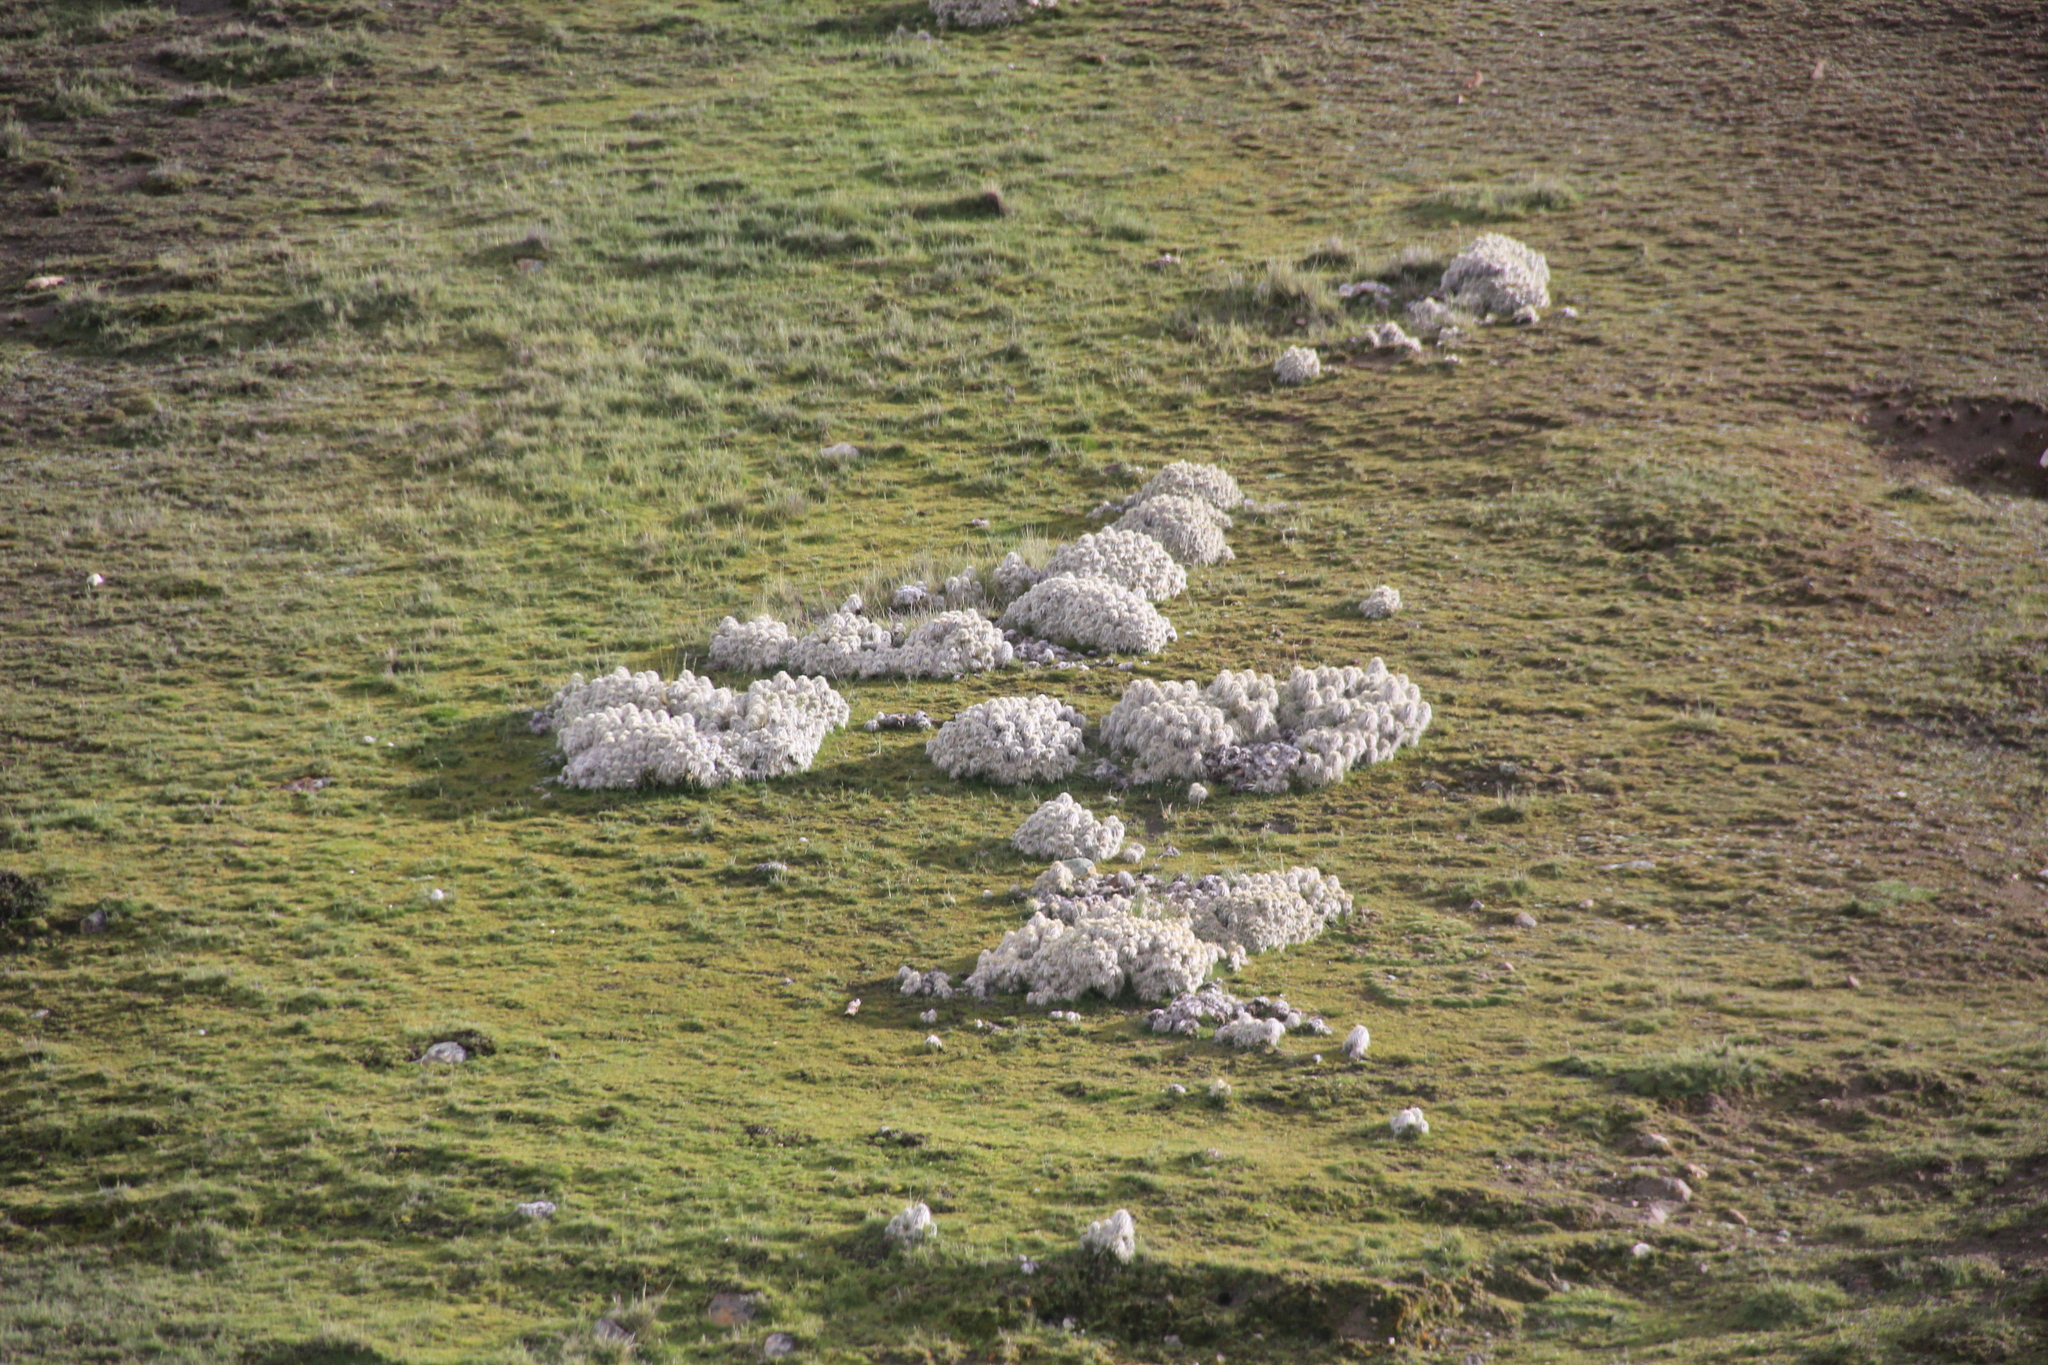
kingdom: Plantae
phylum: Tracheophyta
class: Magnoliopsida
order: Caryophyllales
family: Cactaceae
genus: Austrocylindropuntia
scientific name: Austrocylindropuntia floccosa
